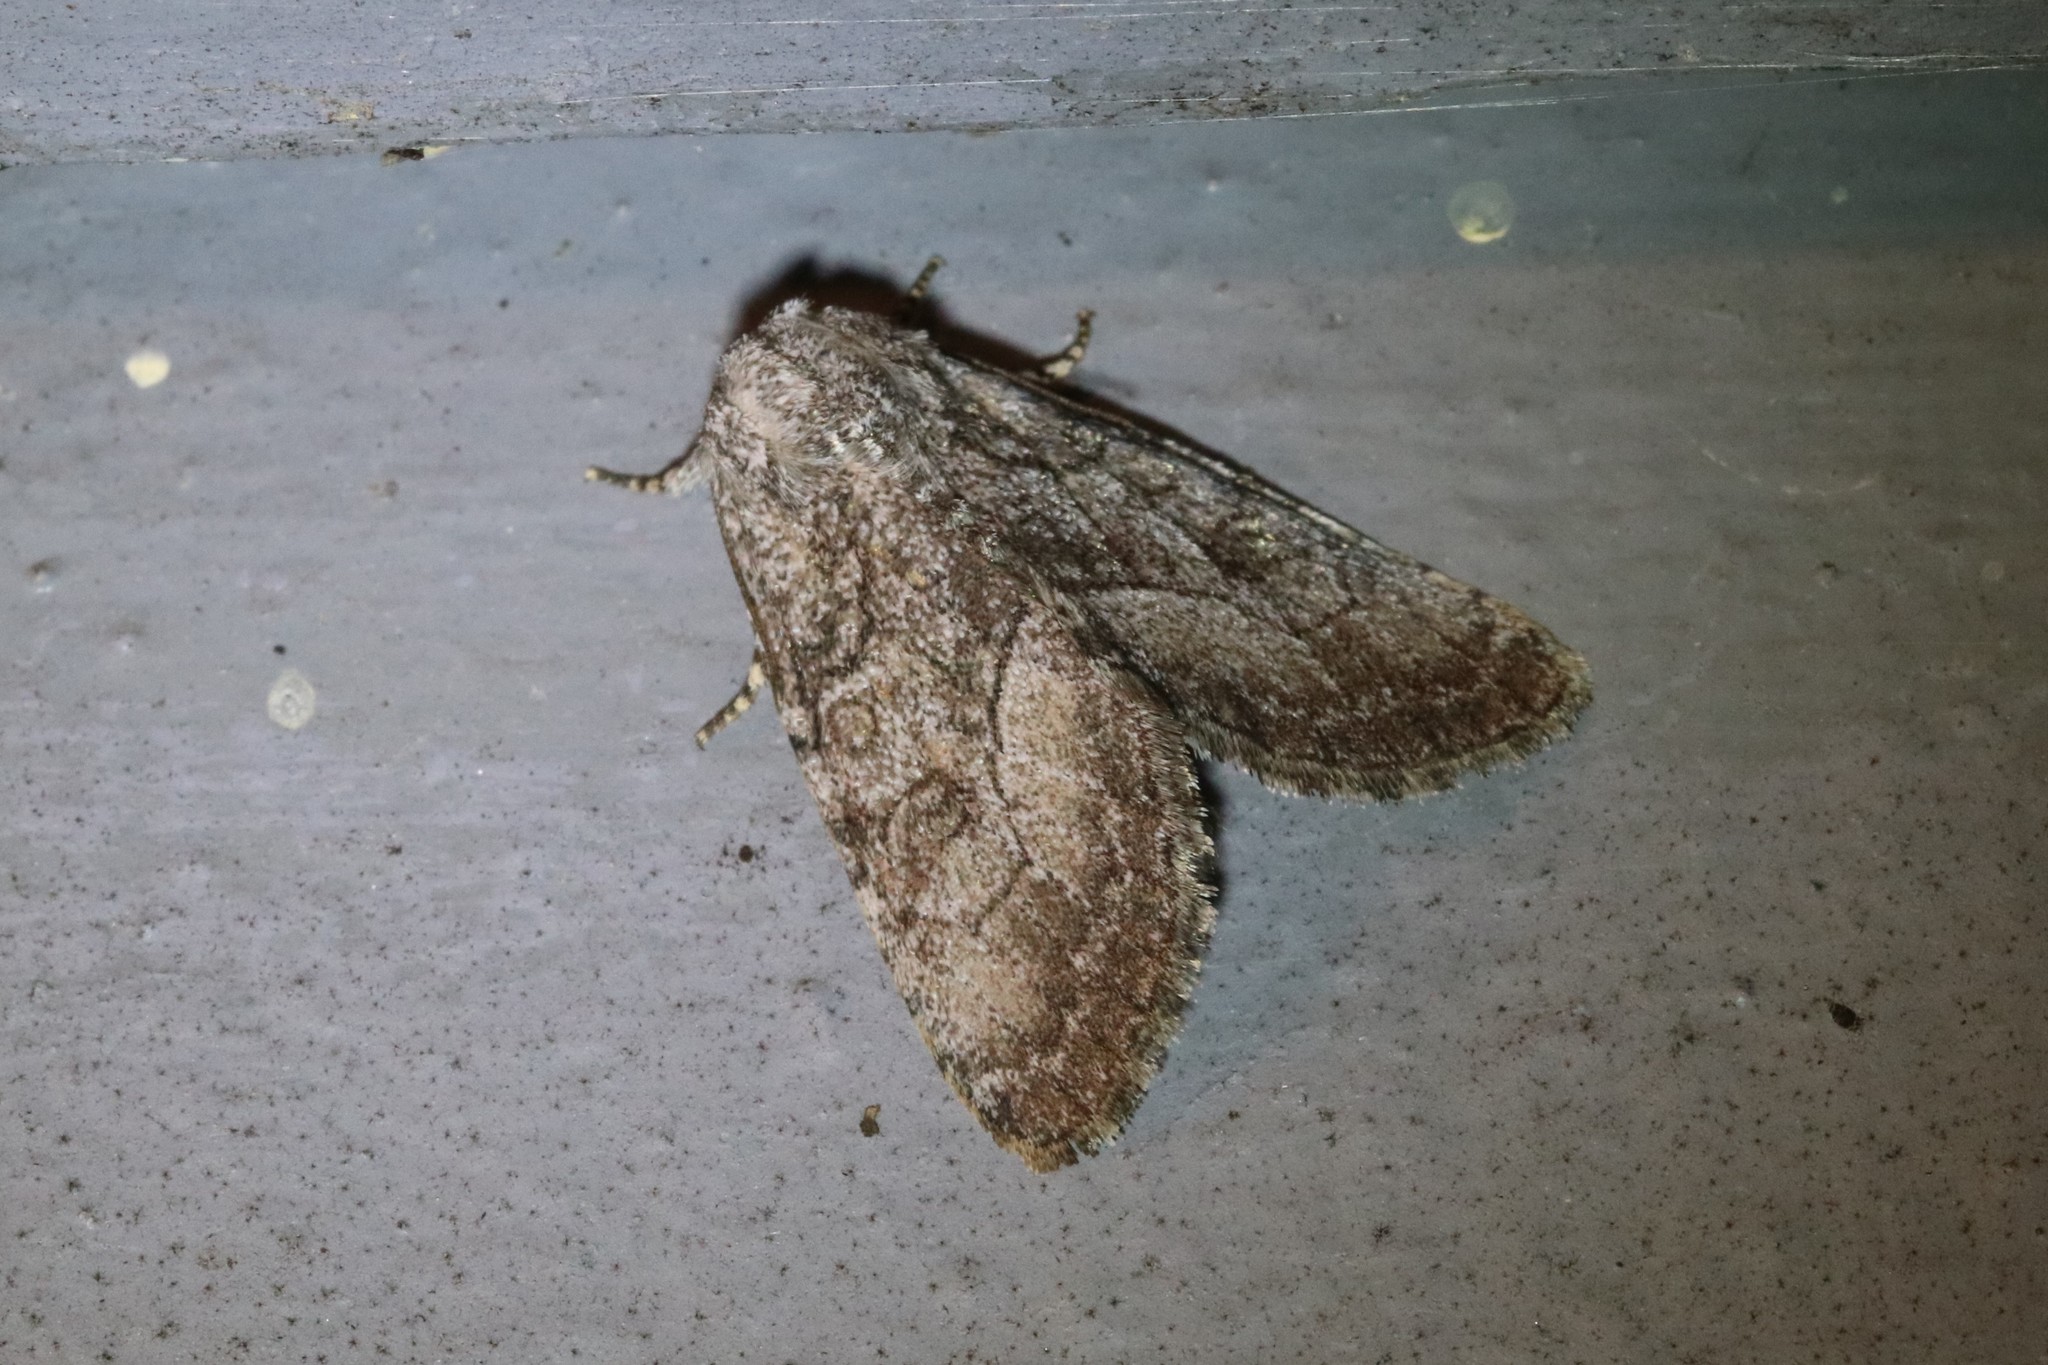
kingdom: Animalia
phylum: Arthropoda
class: Insecta
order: Lepidoptera
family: Noctuidae
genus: Raphia
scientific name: Raphia frater
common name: Brother
